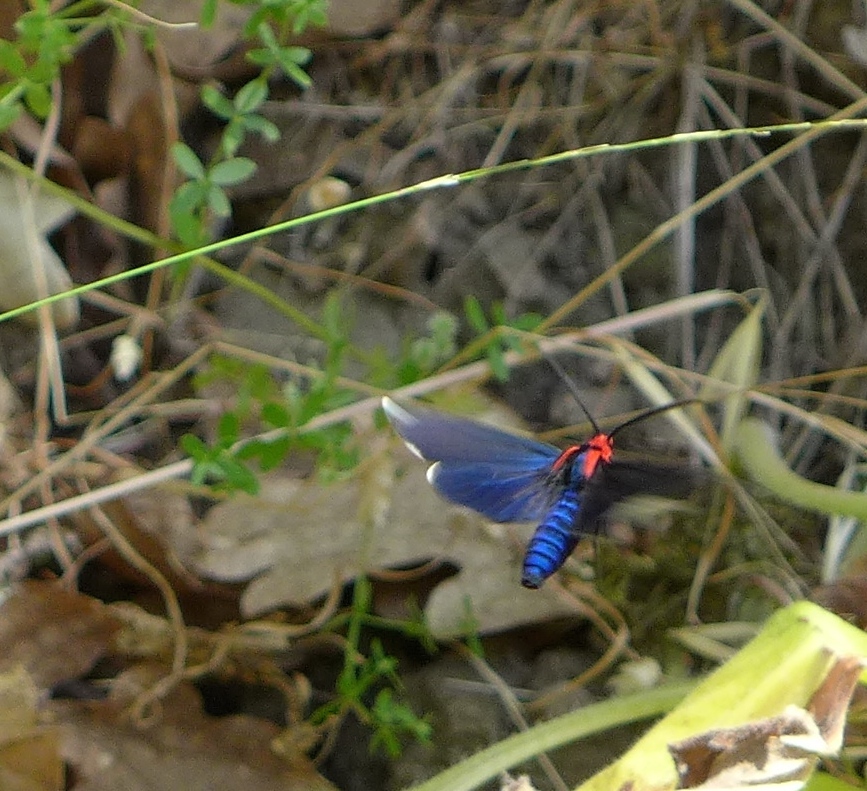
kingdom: Animalia
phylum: Arthropoda
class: Insecta
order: Lepidoptera
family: Erebidae
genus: Ctenucha
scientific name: Ctenucha rubroscapus
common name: Red-shouldered ctenucha
